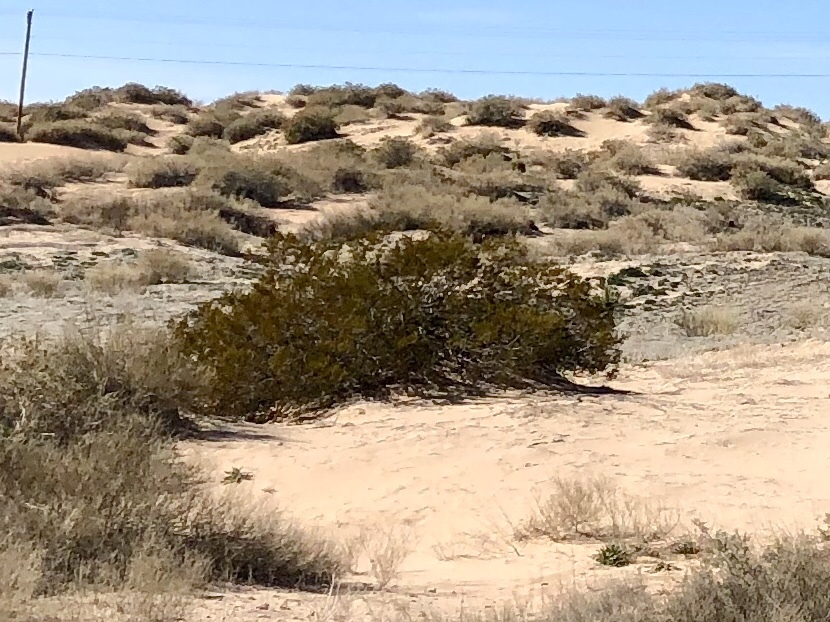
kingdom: Plantae
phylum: Tracheophyta
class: Magnoliopsida
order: Zygophyllales
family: Zygophyllaceae
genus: Larrea
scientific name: Larrea tridentata
